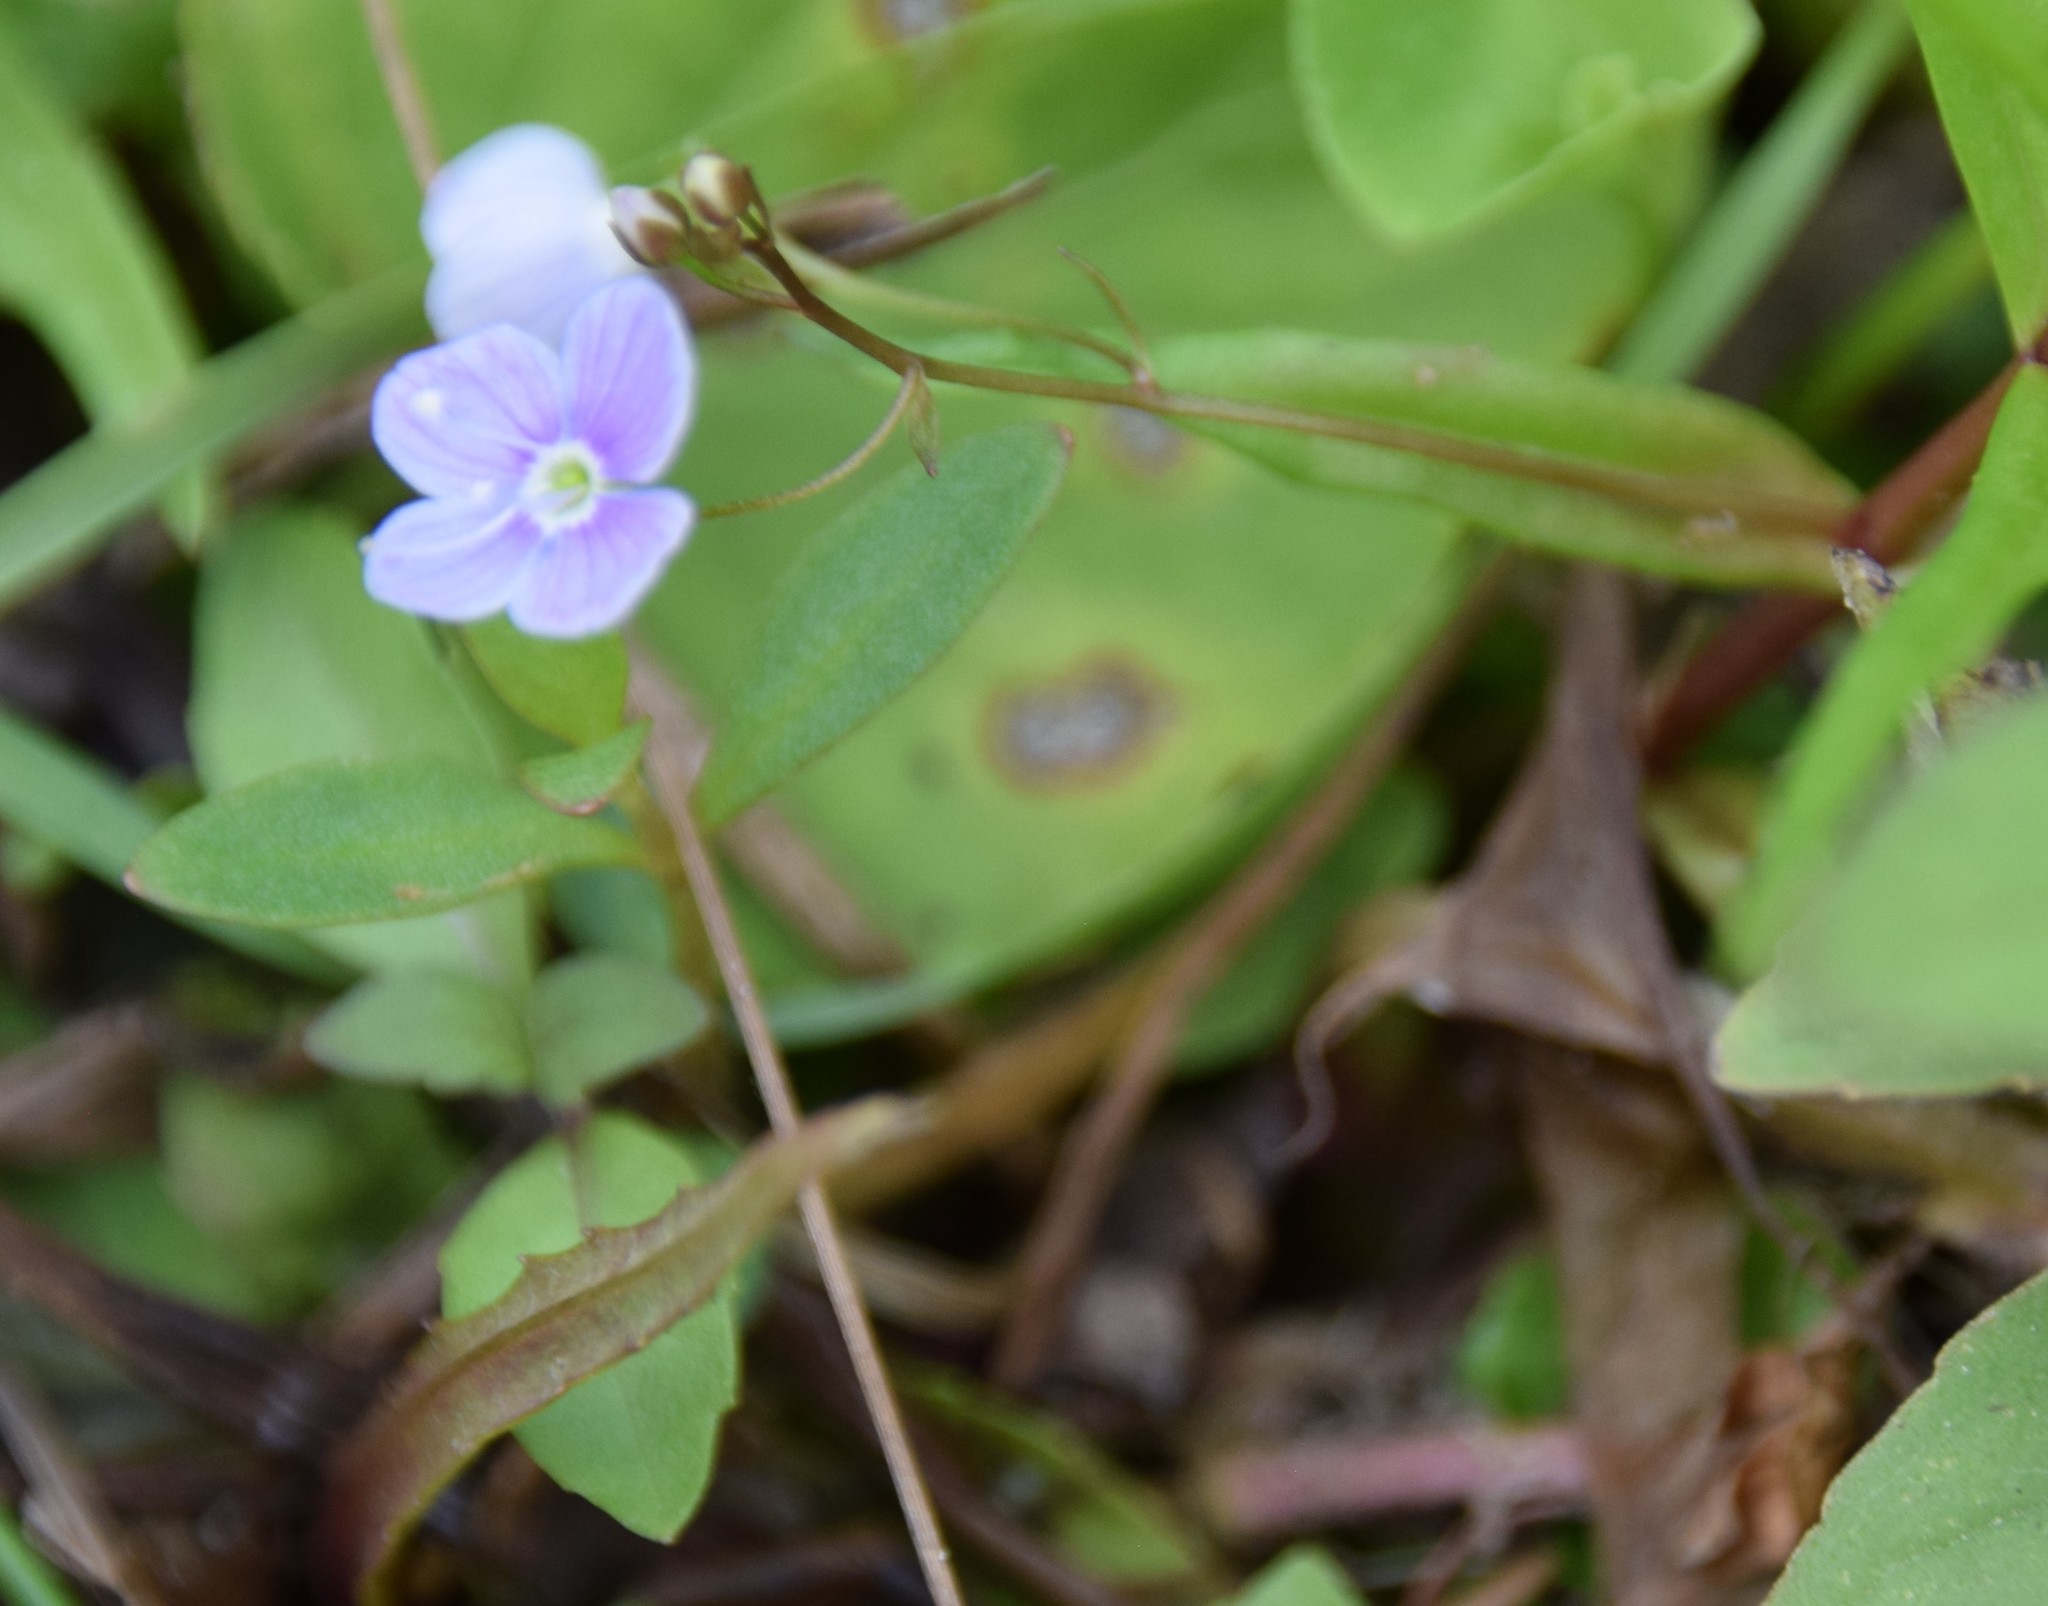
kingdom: Plantae
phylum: Tracheophyta
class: Magnoliopsida
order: Lamiales
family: Plantaginaceae
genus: Veronica
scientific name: Veronica scutellata
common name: Marsh speedwell
